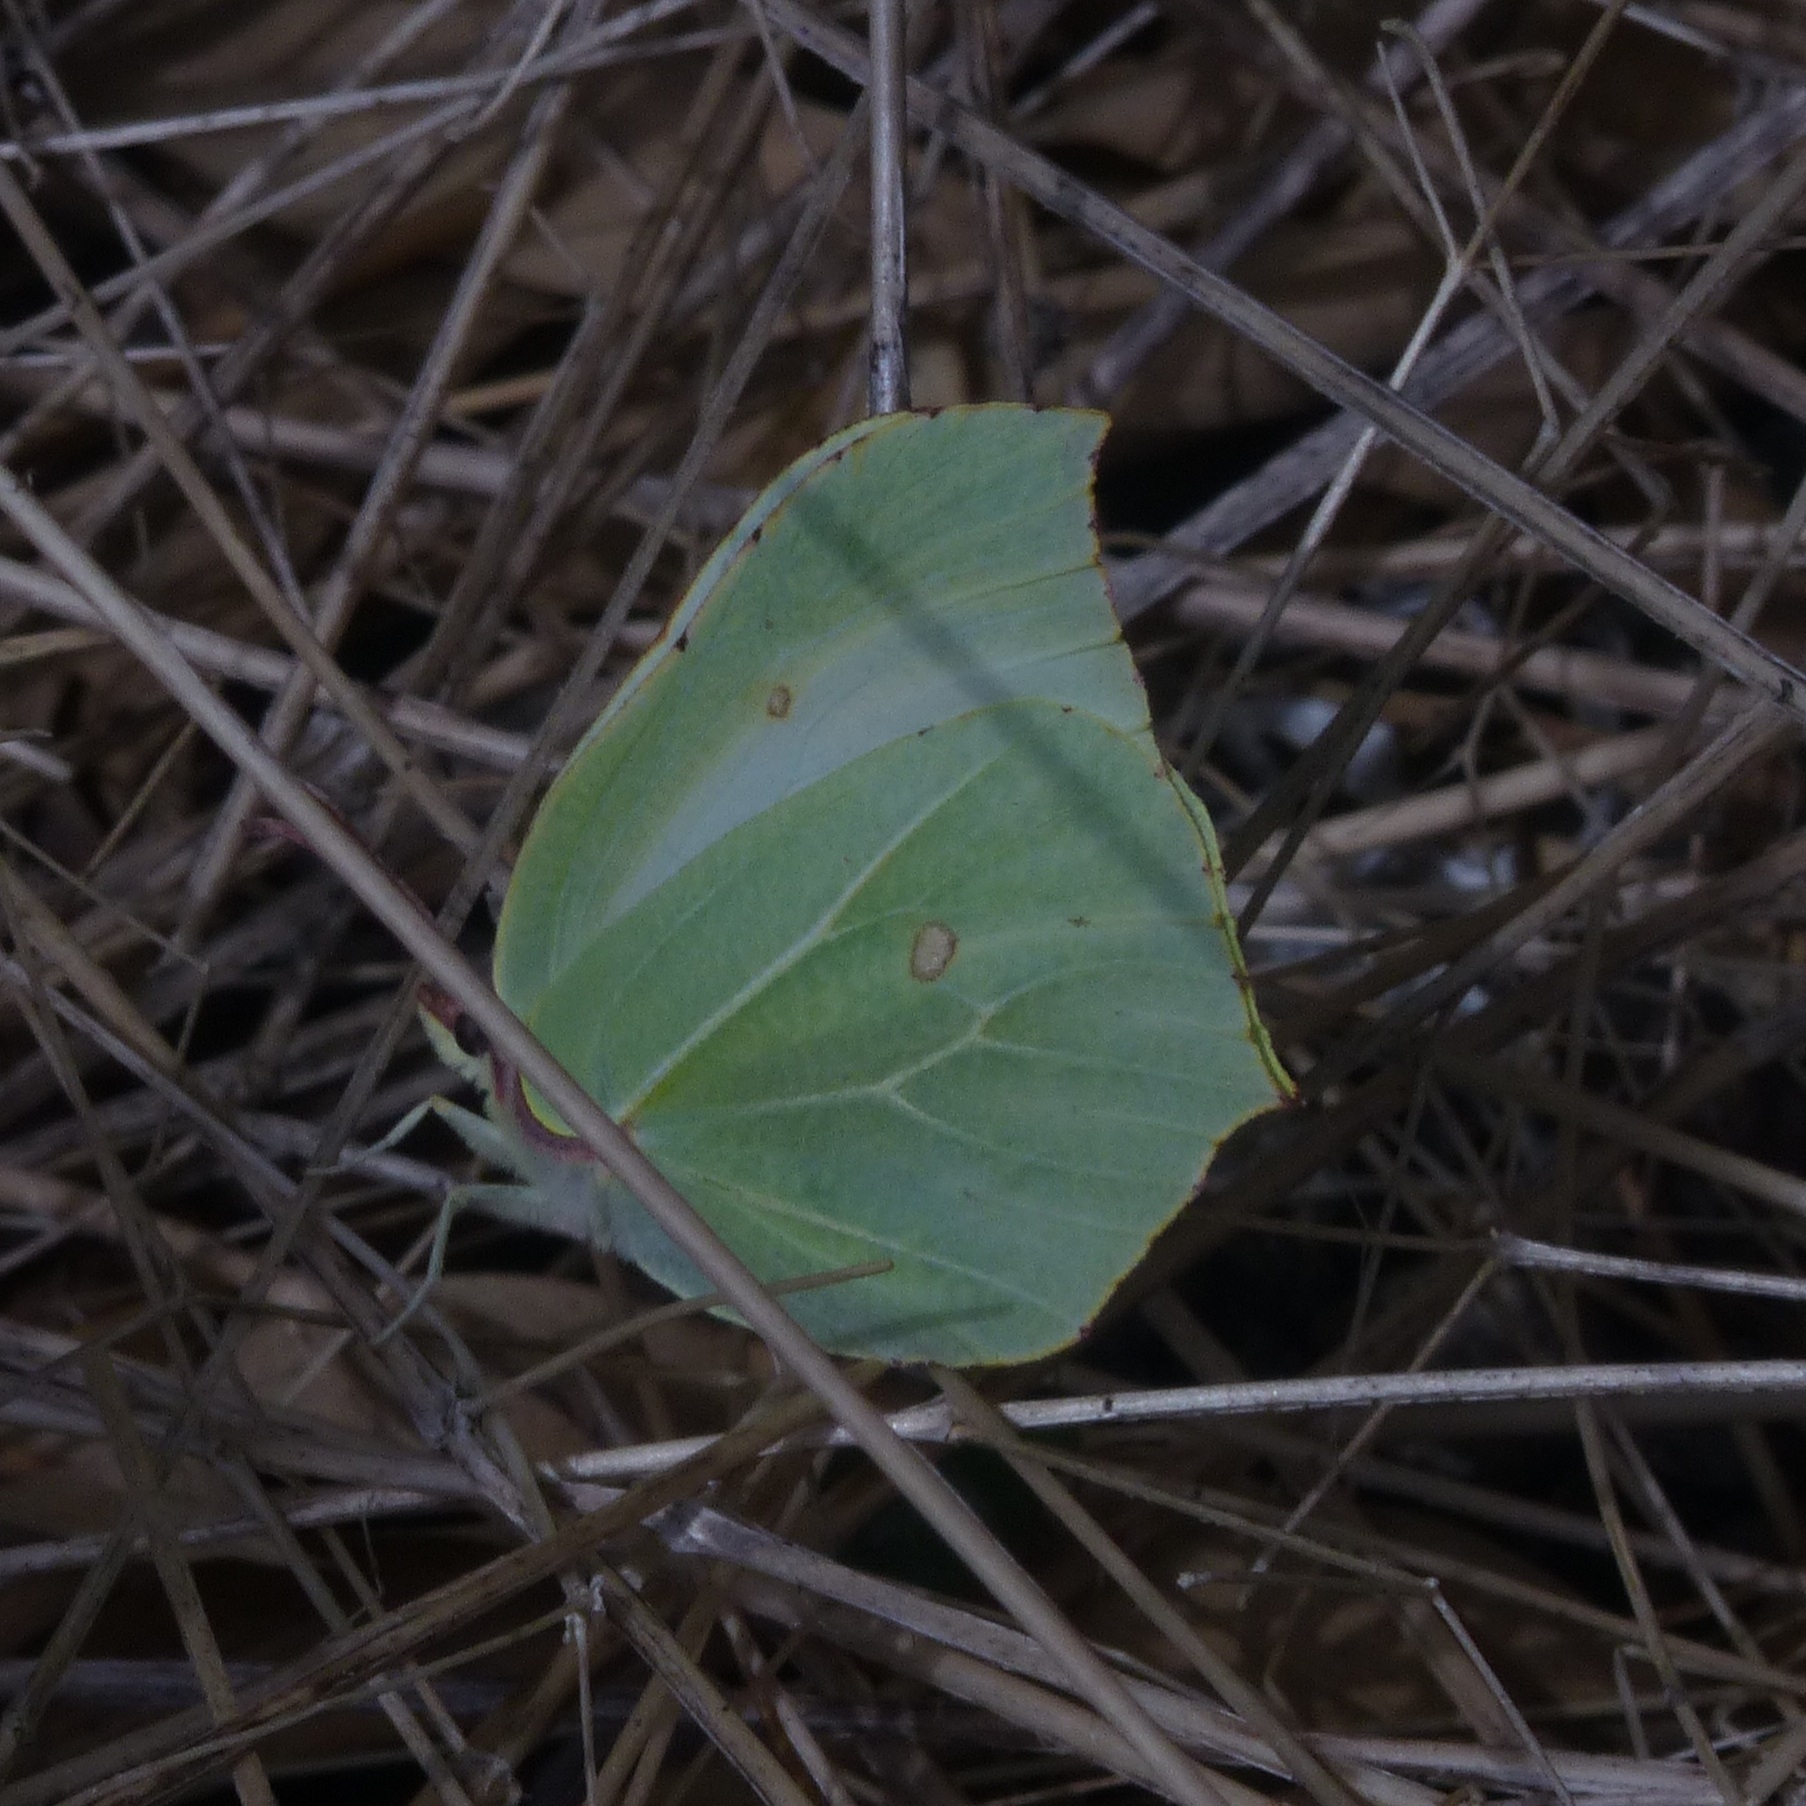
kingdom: Animalia
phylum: Arthropoda
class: Insecta
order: Lepidoptera
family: Pieridae
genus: Gonepteryx
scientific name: Gonepteryx rhamni
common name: Brimstone
